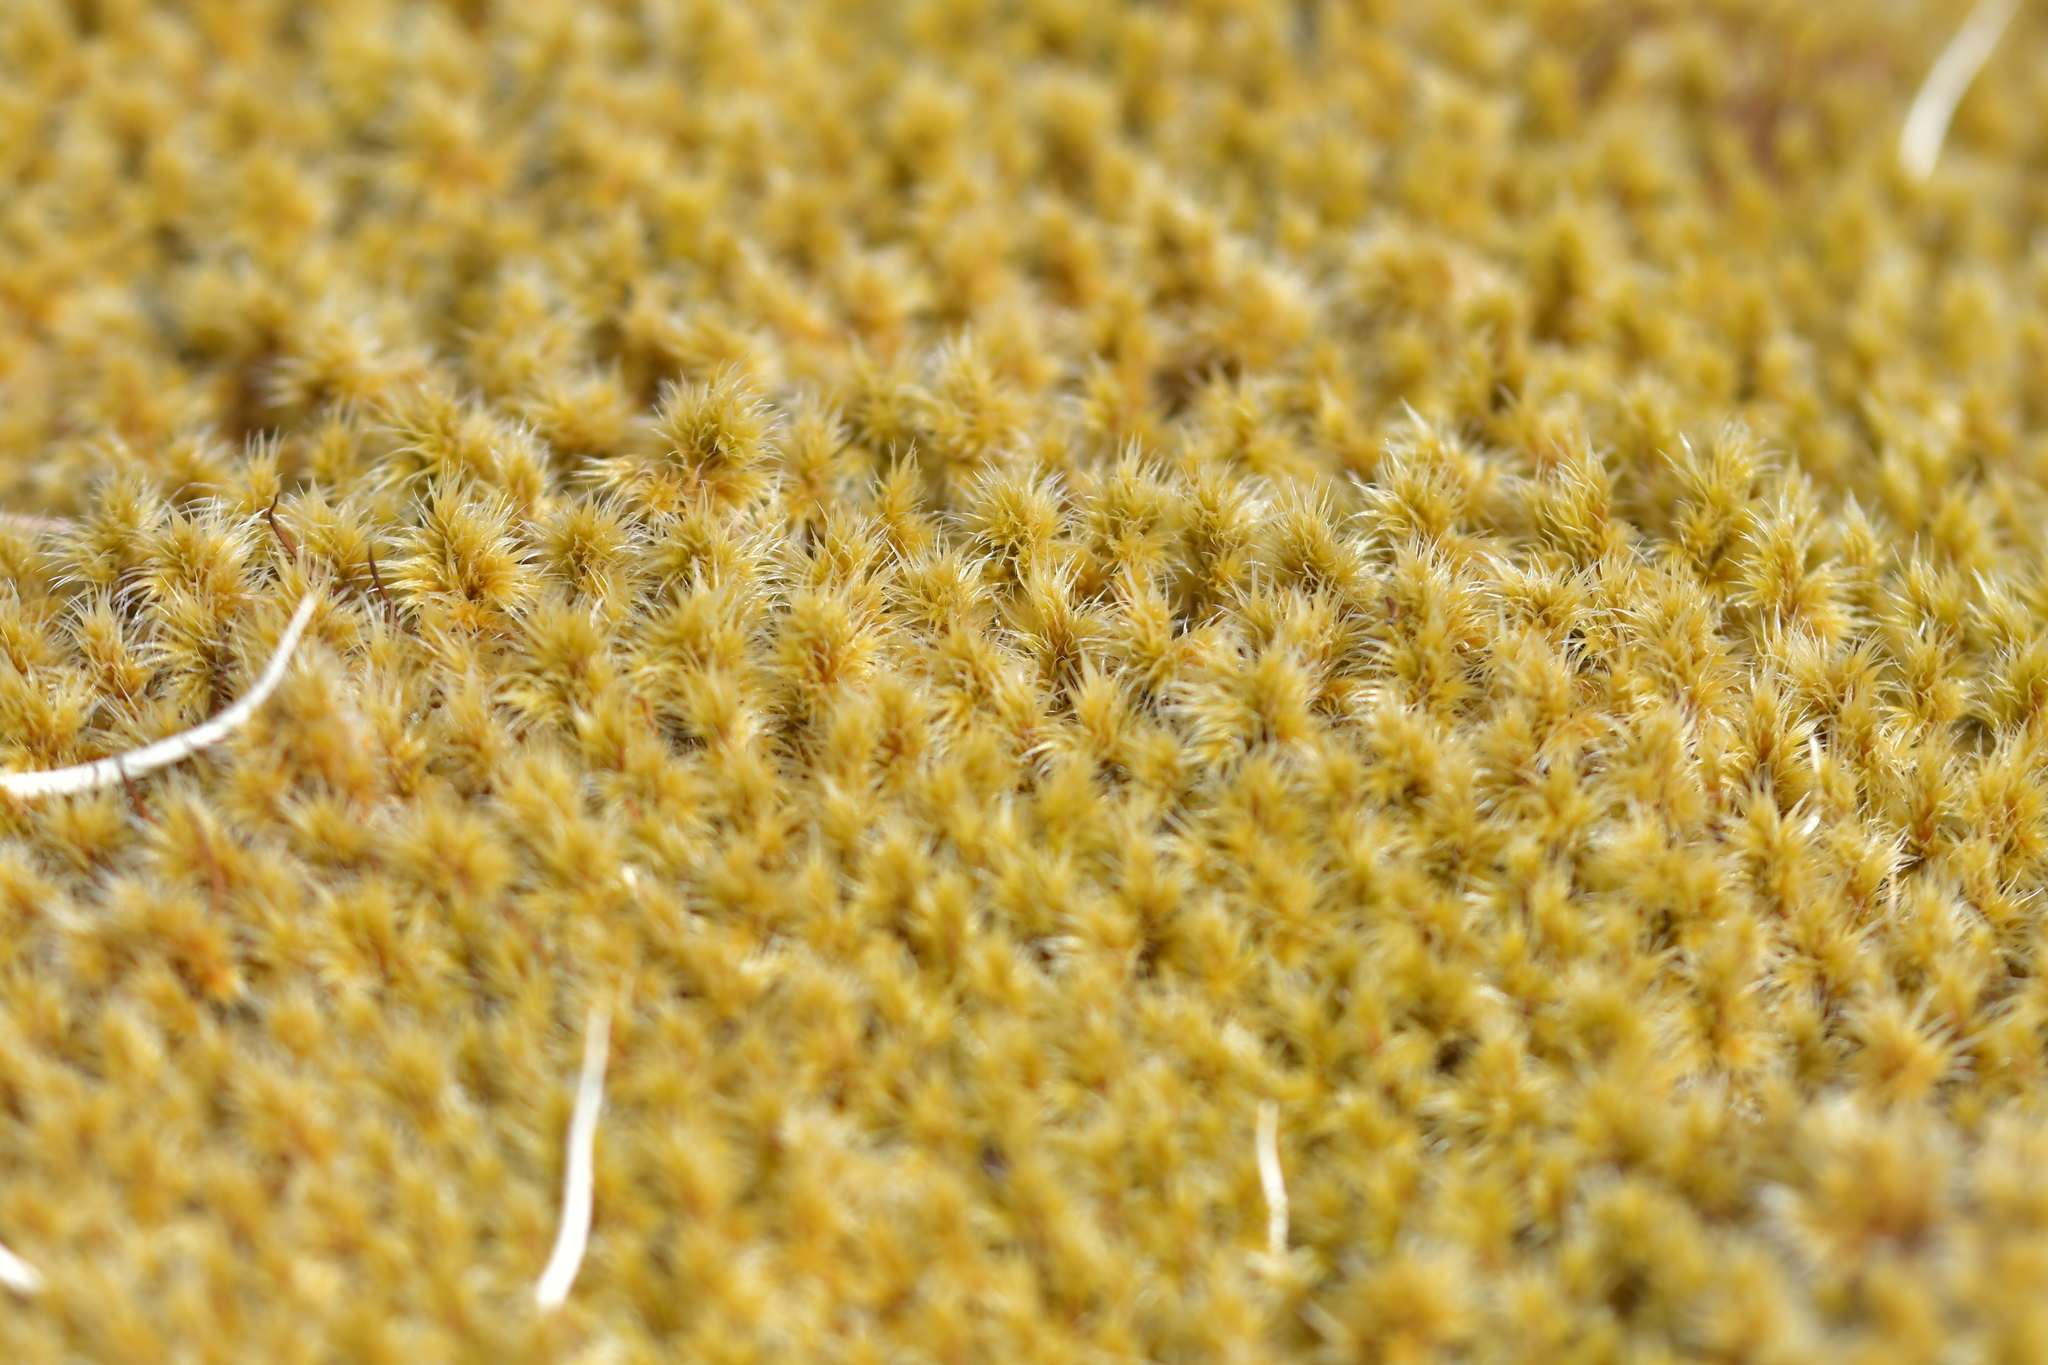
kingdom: Plantae
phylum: Bryophyta
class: Bryopsida
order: Grimmiales
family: Grimmiaceae
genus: Racomitrium
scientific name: Racomitrium lanuginosum
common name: Hoary rock moss
